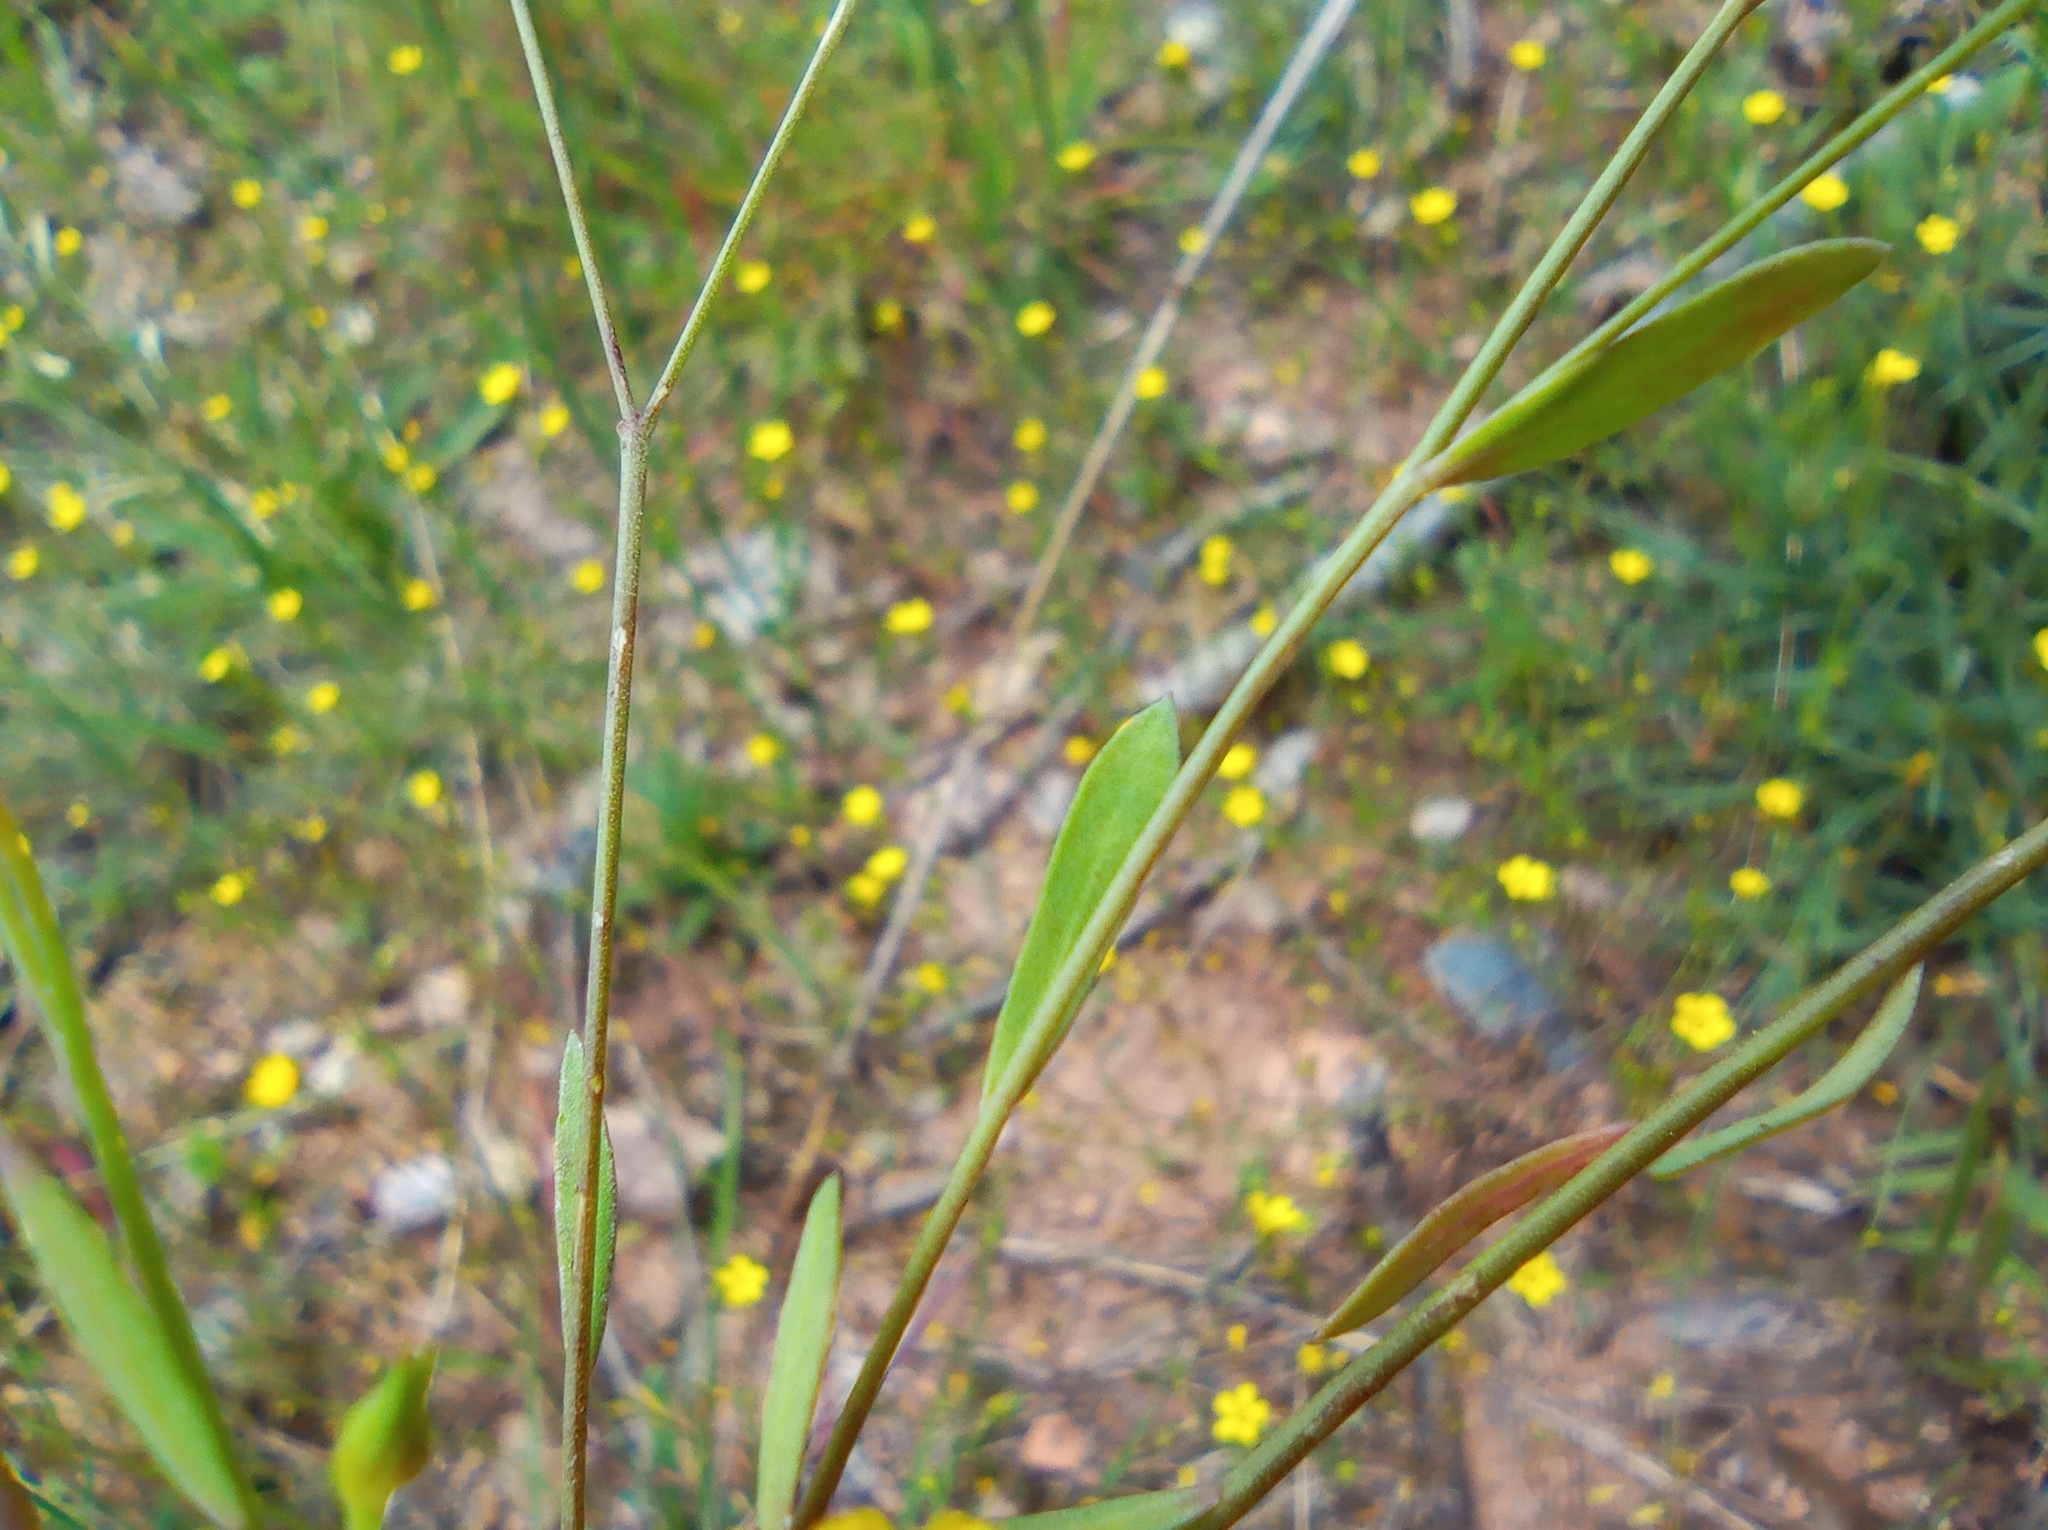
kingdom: Plantae
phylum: Tracheophyta
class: Magnoliopsida
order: Malpighiales
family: Linaceae
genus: Linum
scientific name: Linum trigynum
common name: French flax
